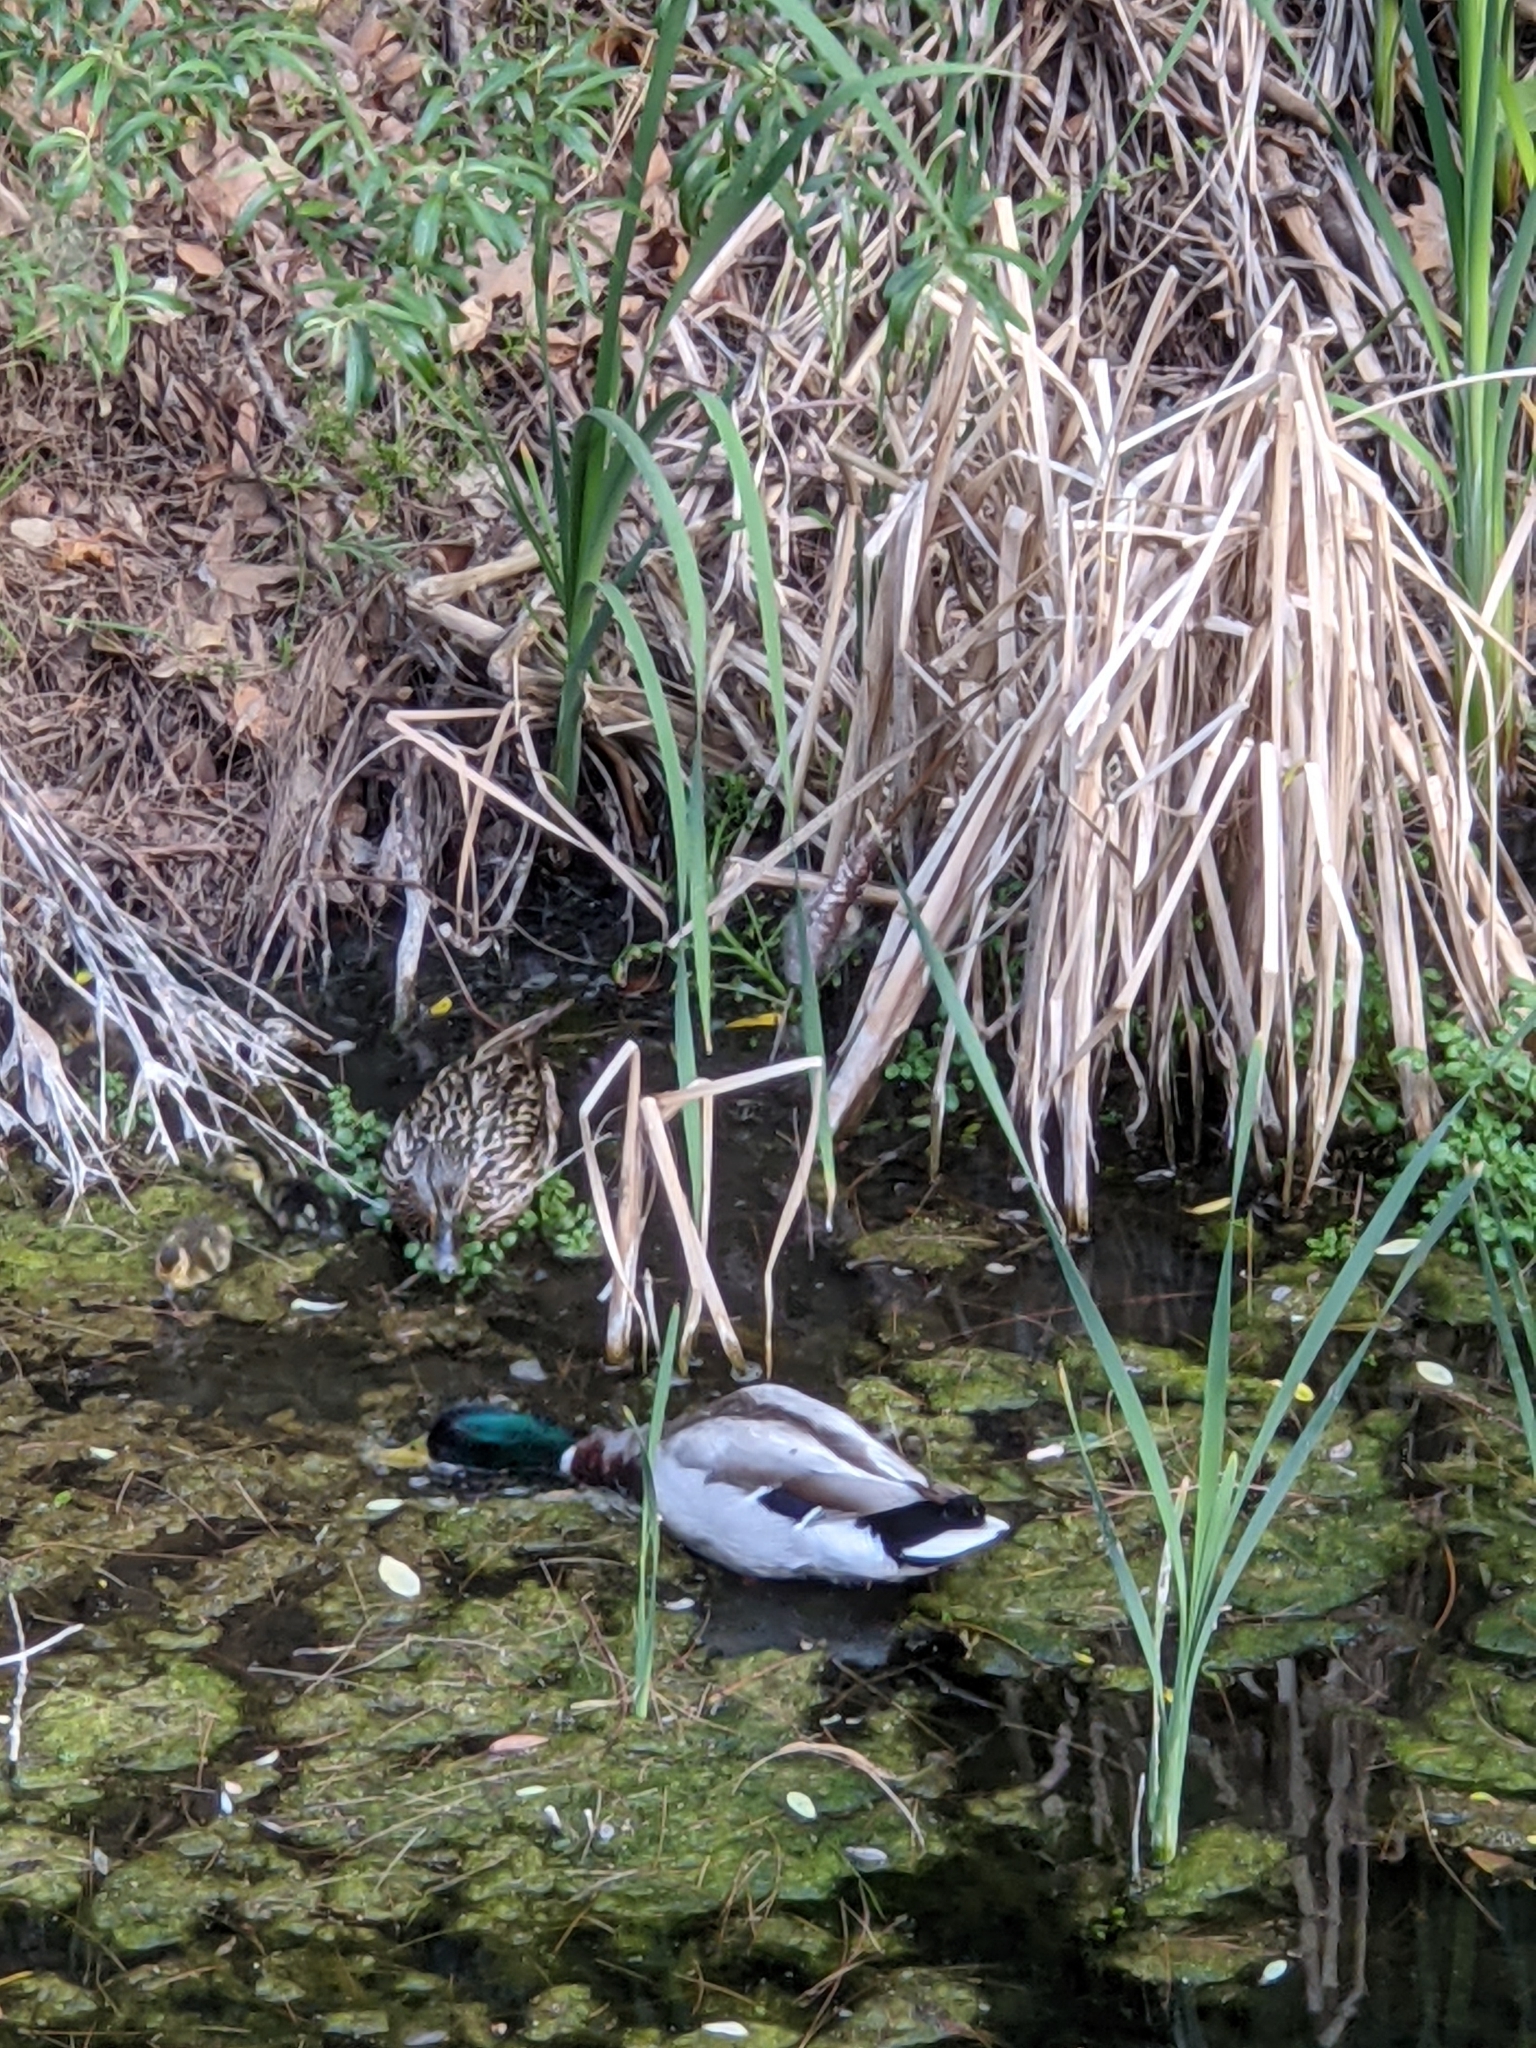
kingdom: Animalia
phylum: Chordata
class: Aves
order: Anseriformes
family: Anatidae
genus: Anas
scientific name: Anas platyrhynchos
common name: Mallard
